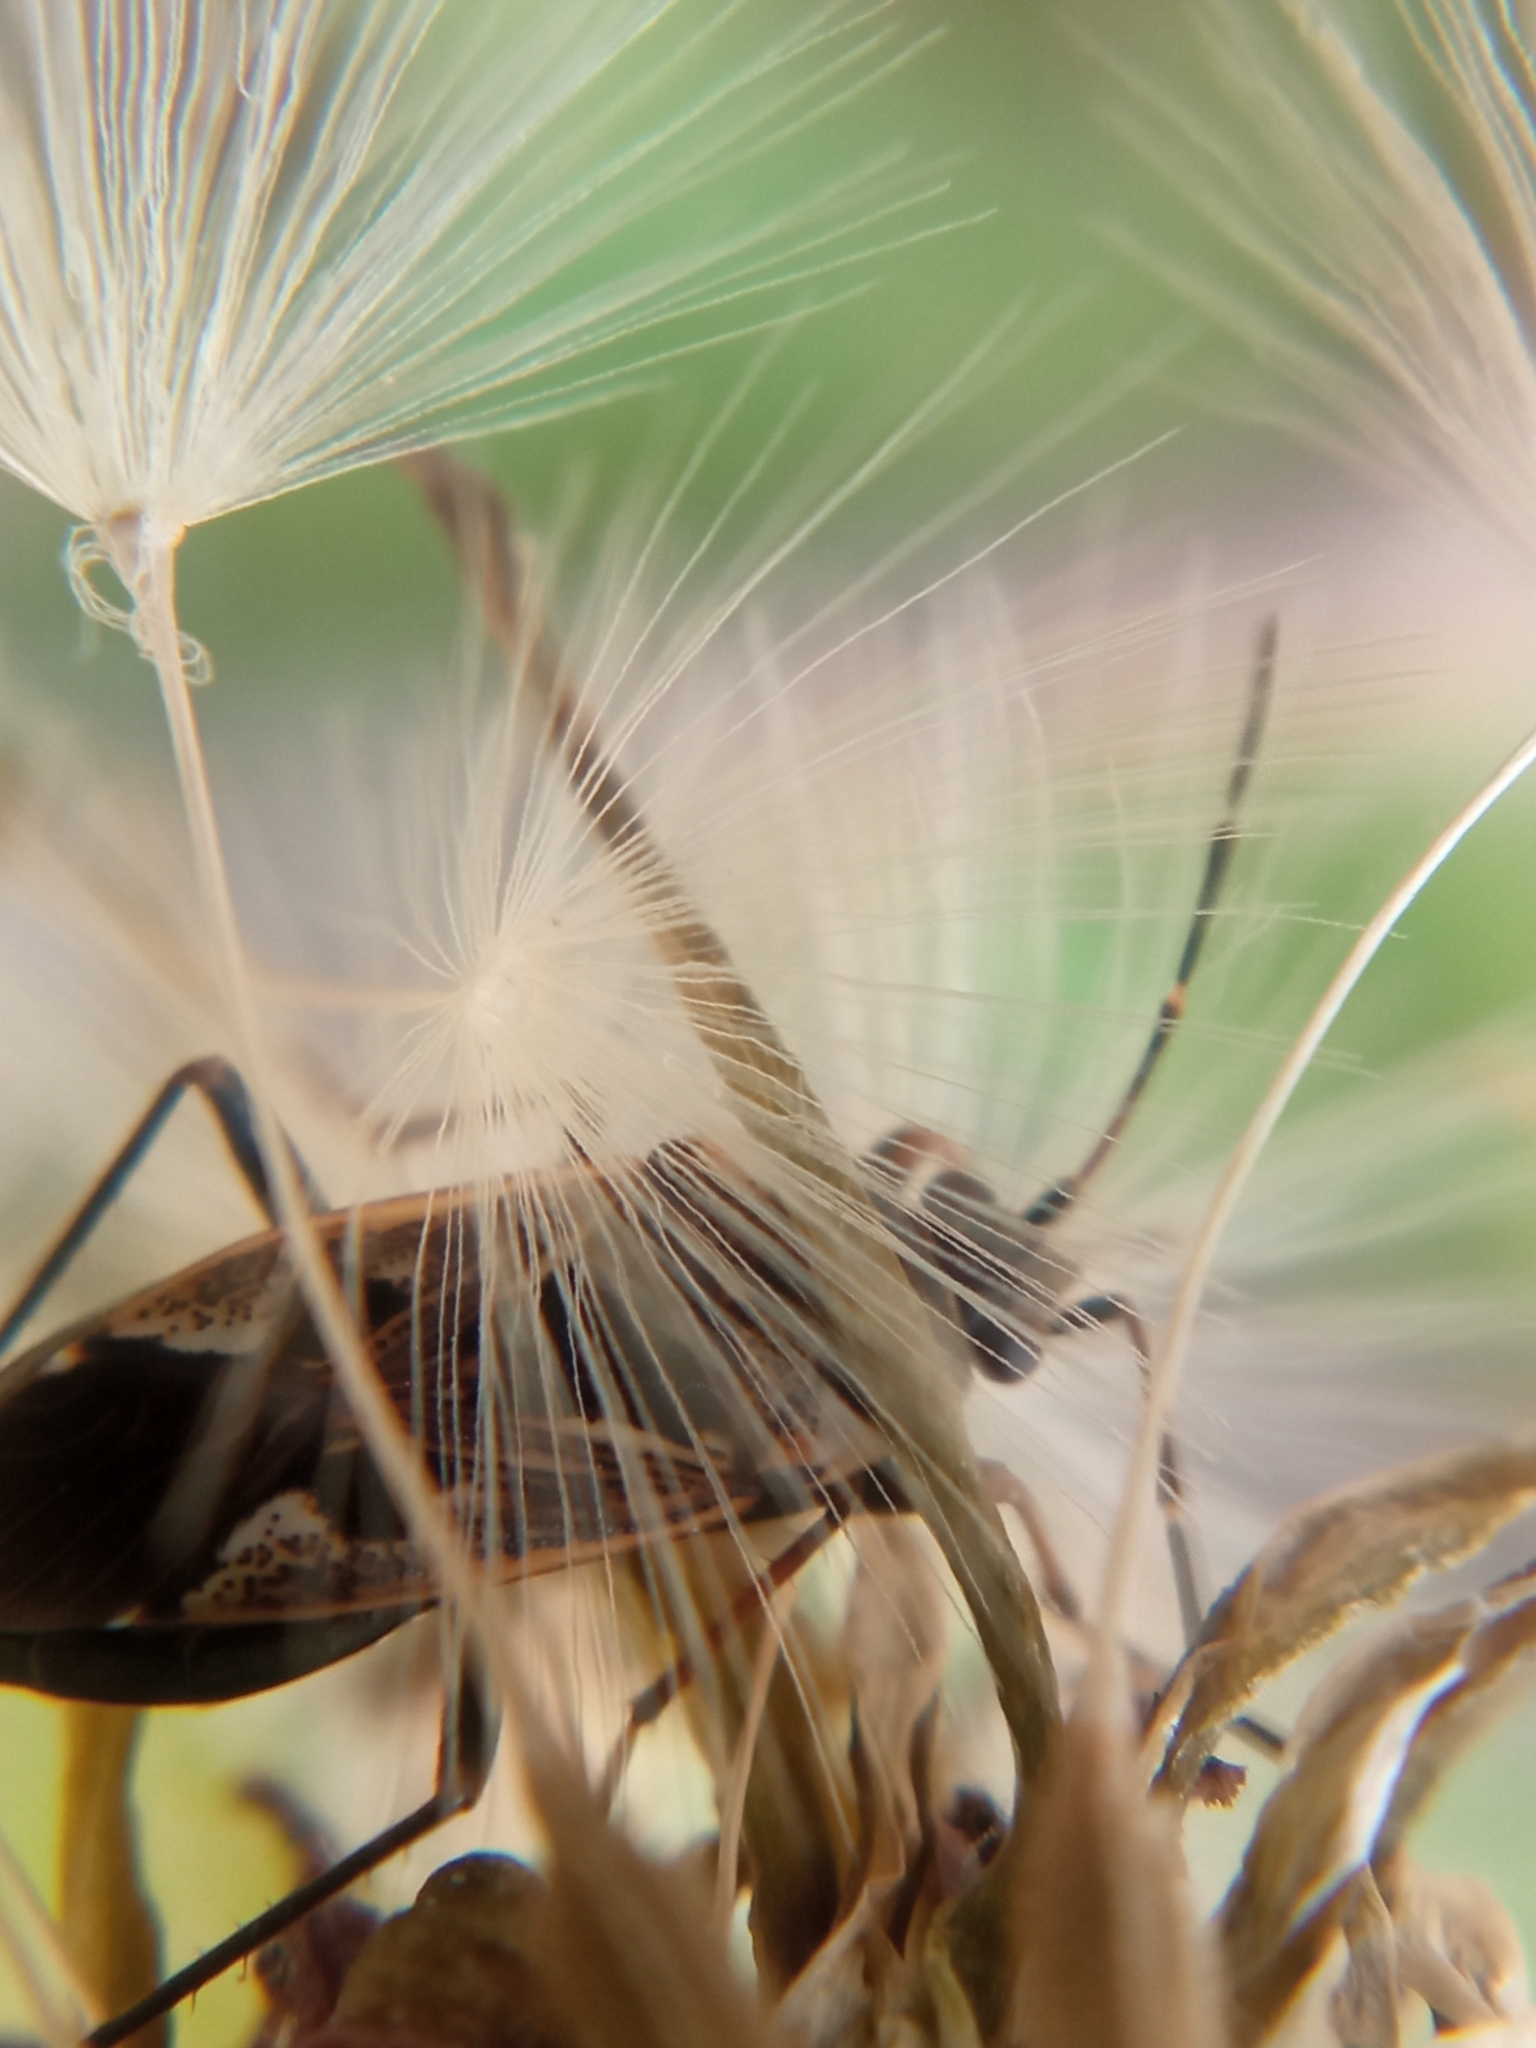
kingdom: Animalia
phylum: Arthropoda
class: Insecta
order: Hemiptera
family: Rhyparochromidae
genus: Rhyparochromus
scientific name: Rhyparochromus vulgaris
